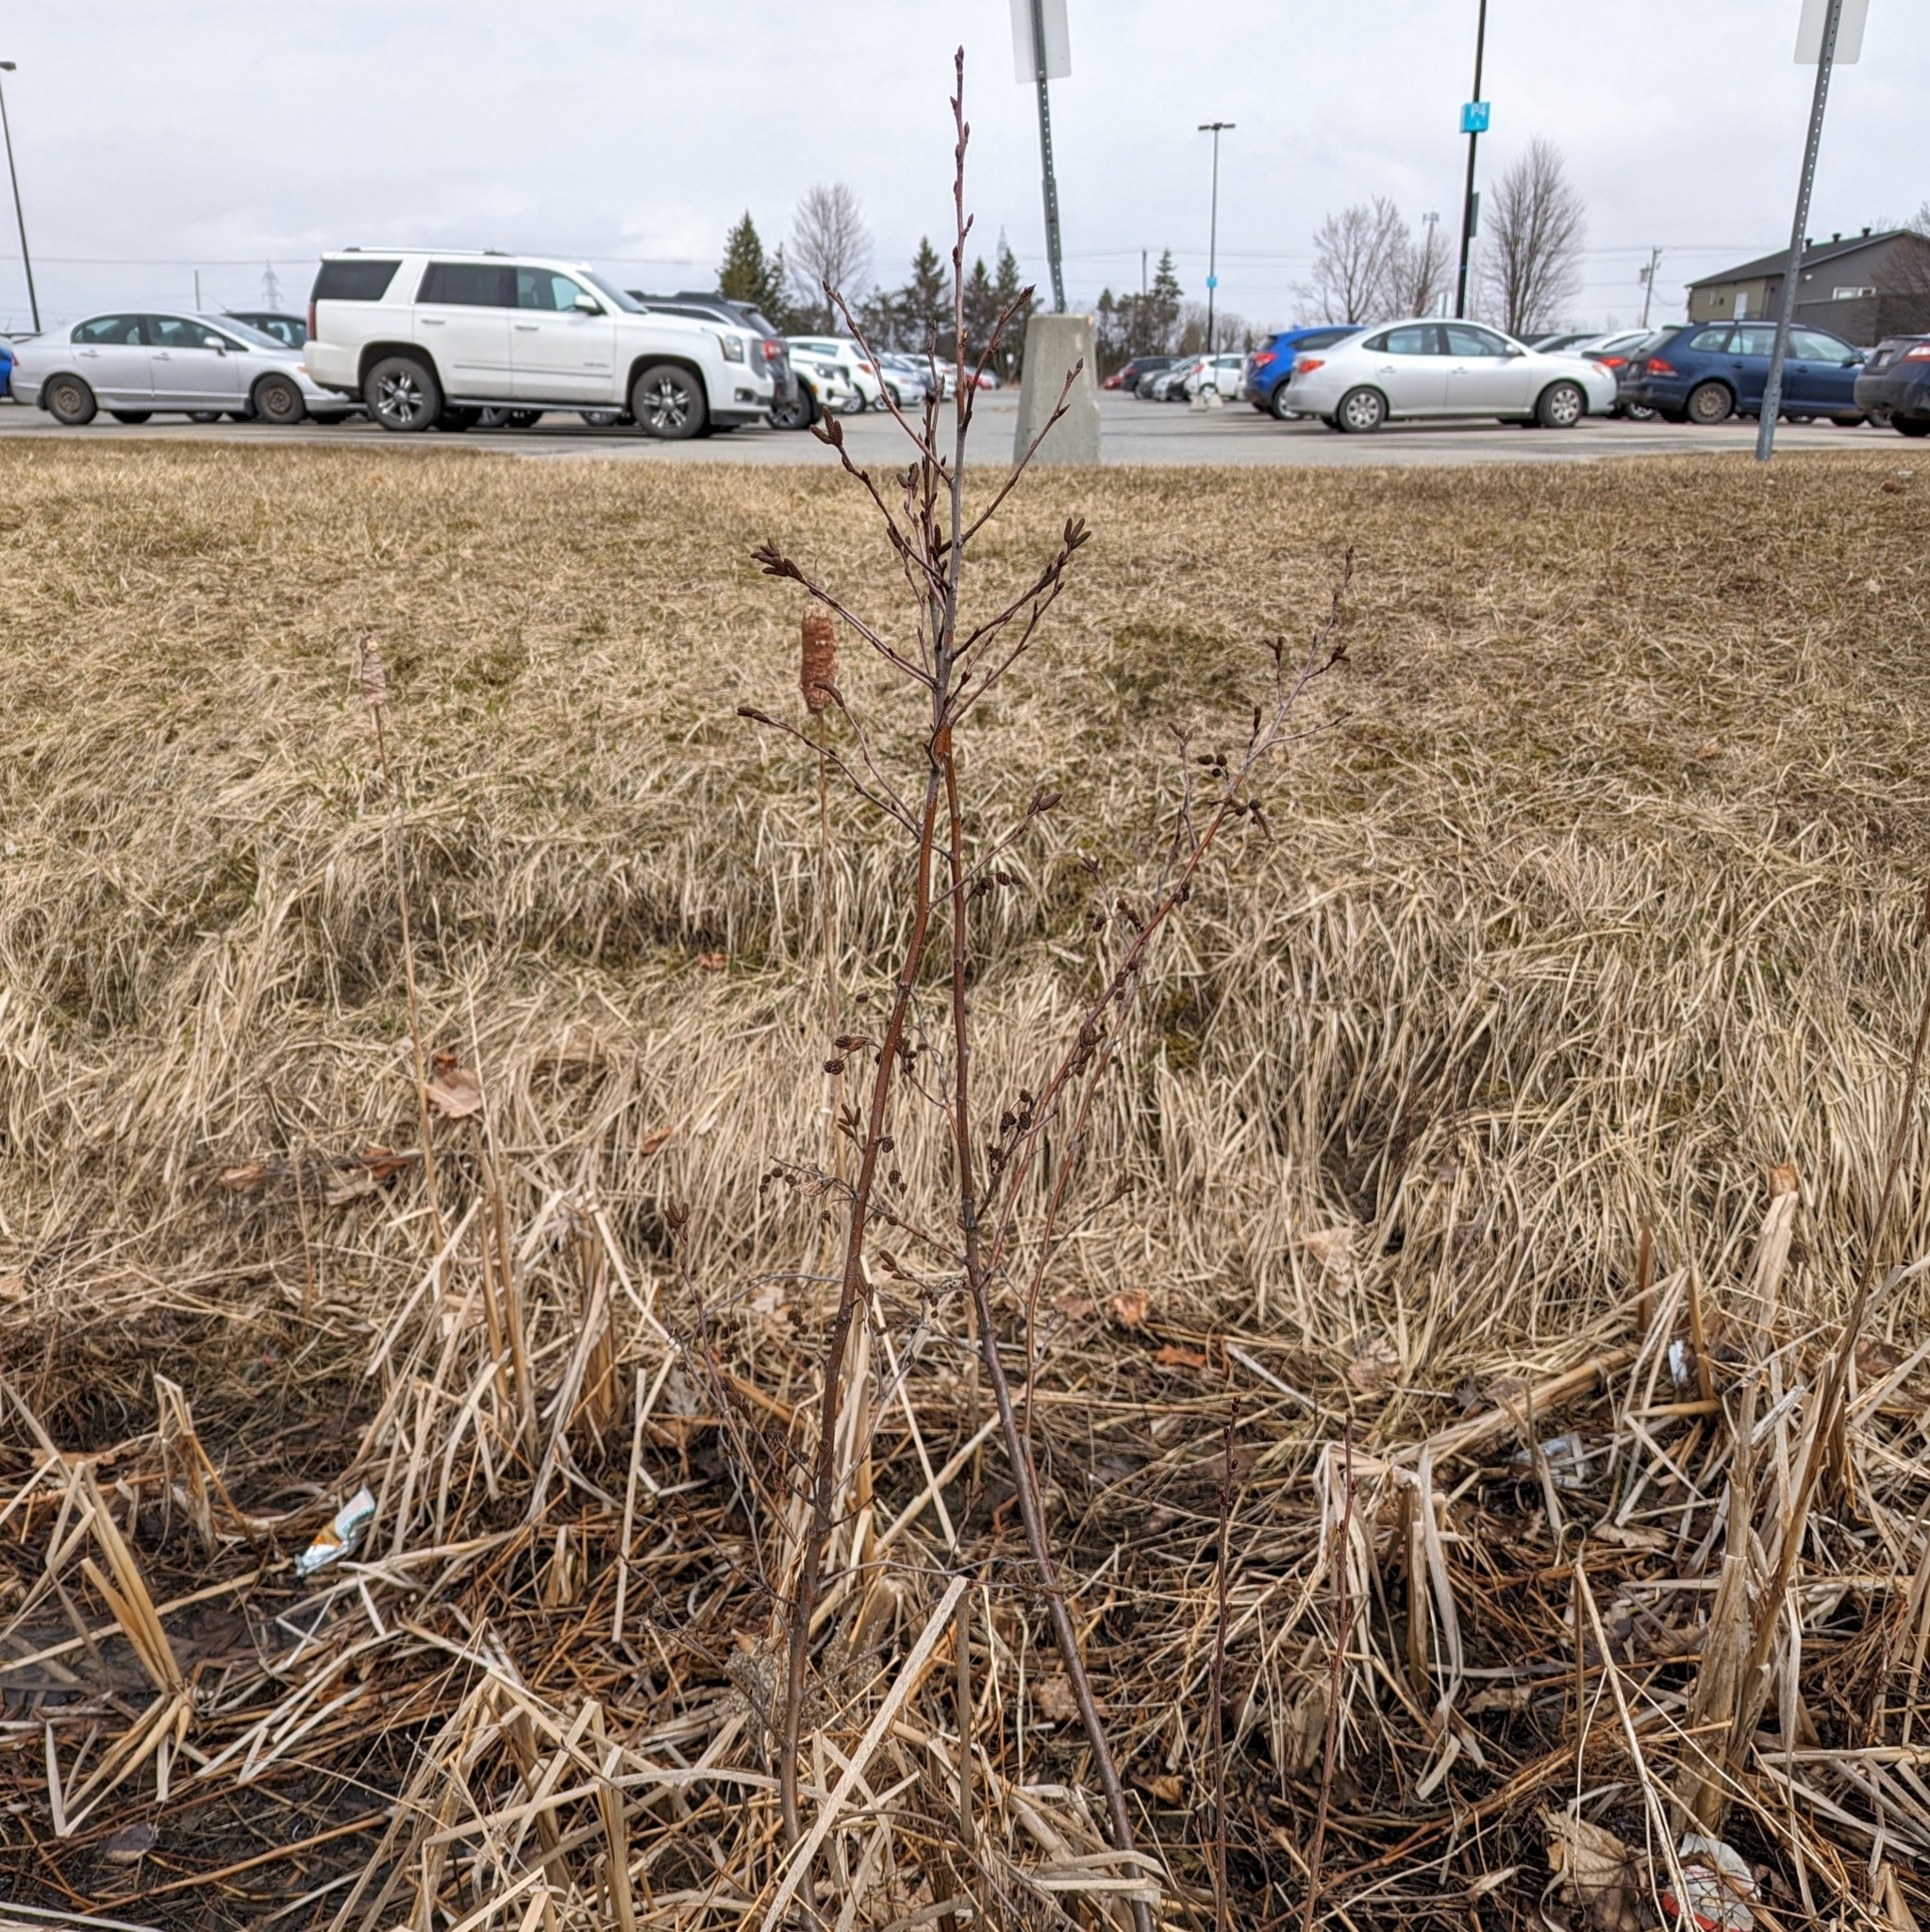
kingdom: Plantae
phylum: Tracheophyta
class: Magnoliopsida
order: Fagales
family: Betulaceae
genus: Alnus
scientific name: Alnus alnobetula
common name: Green alder
